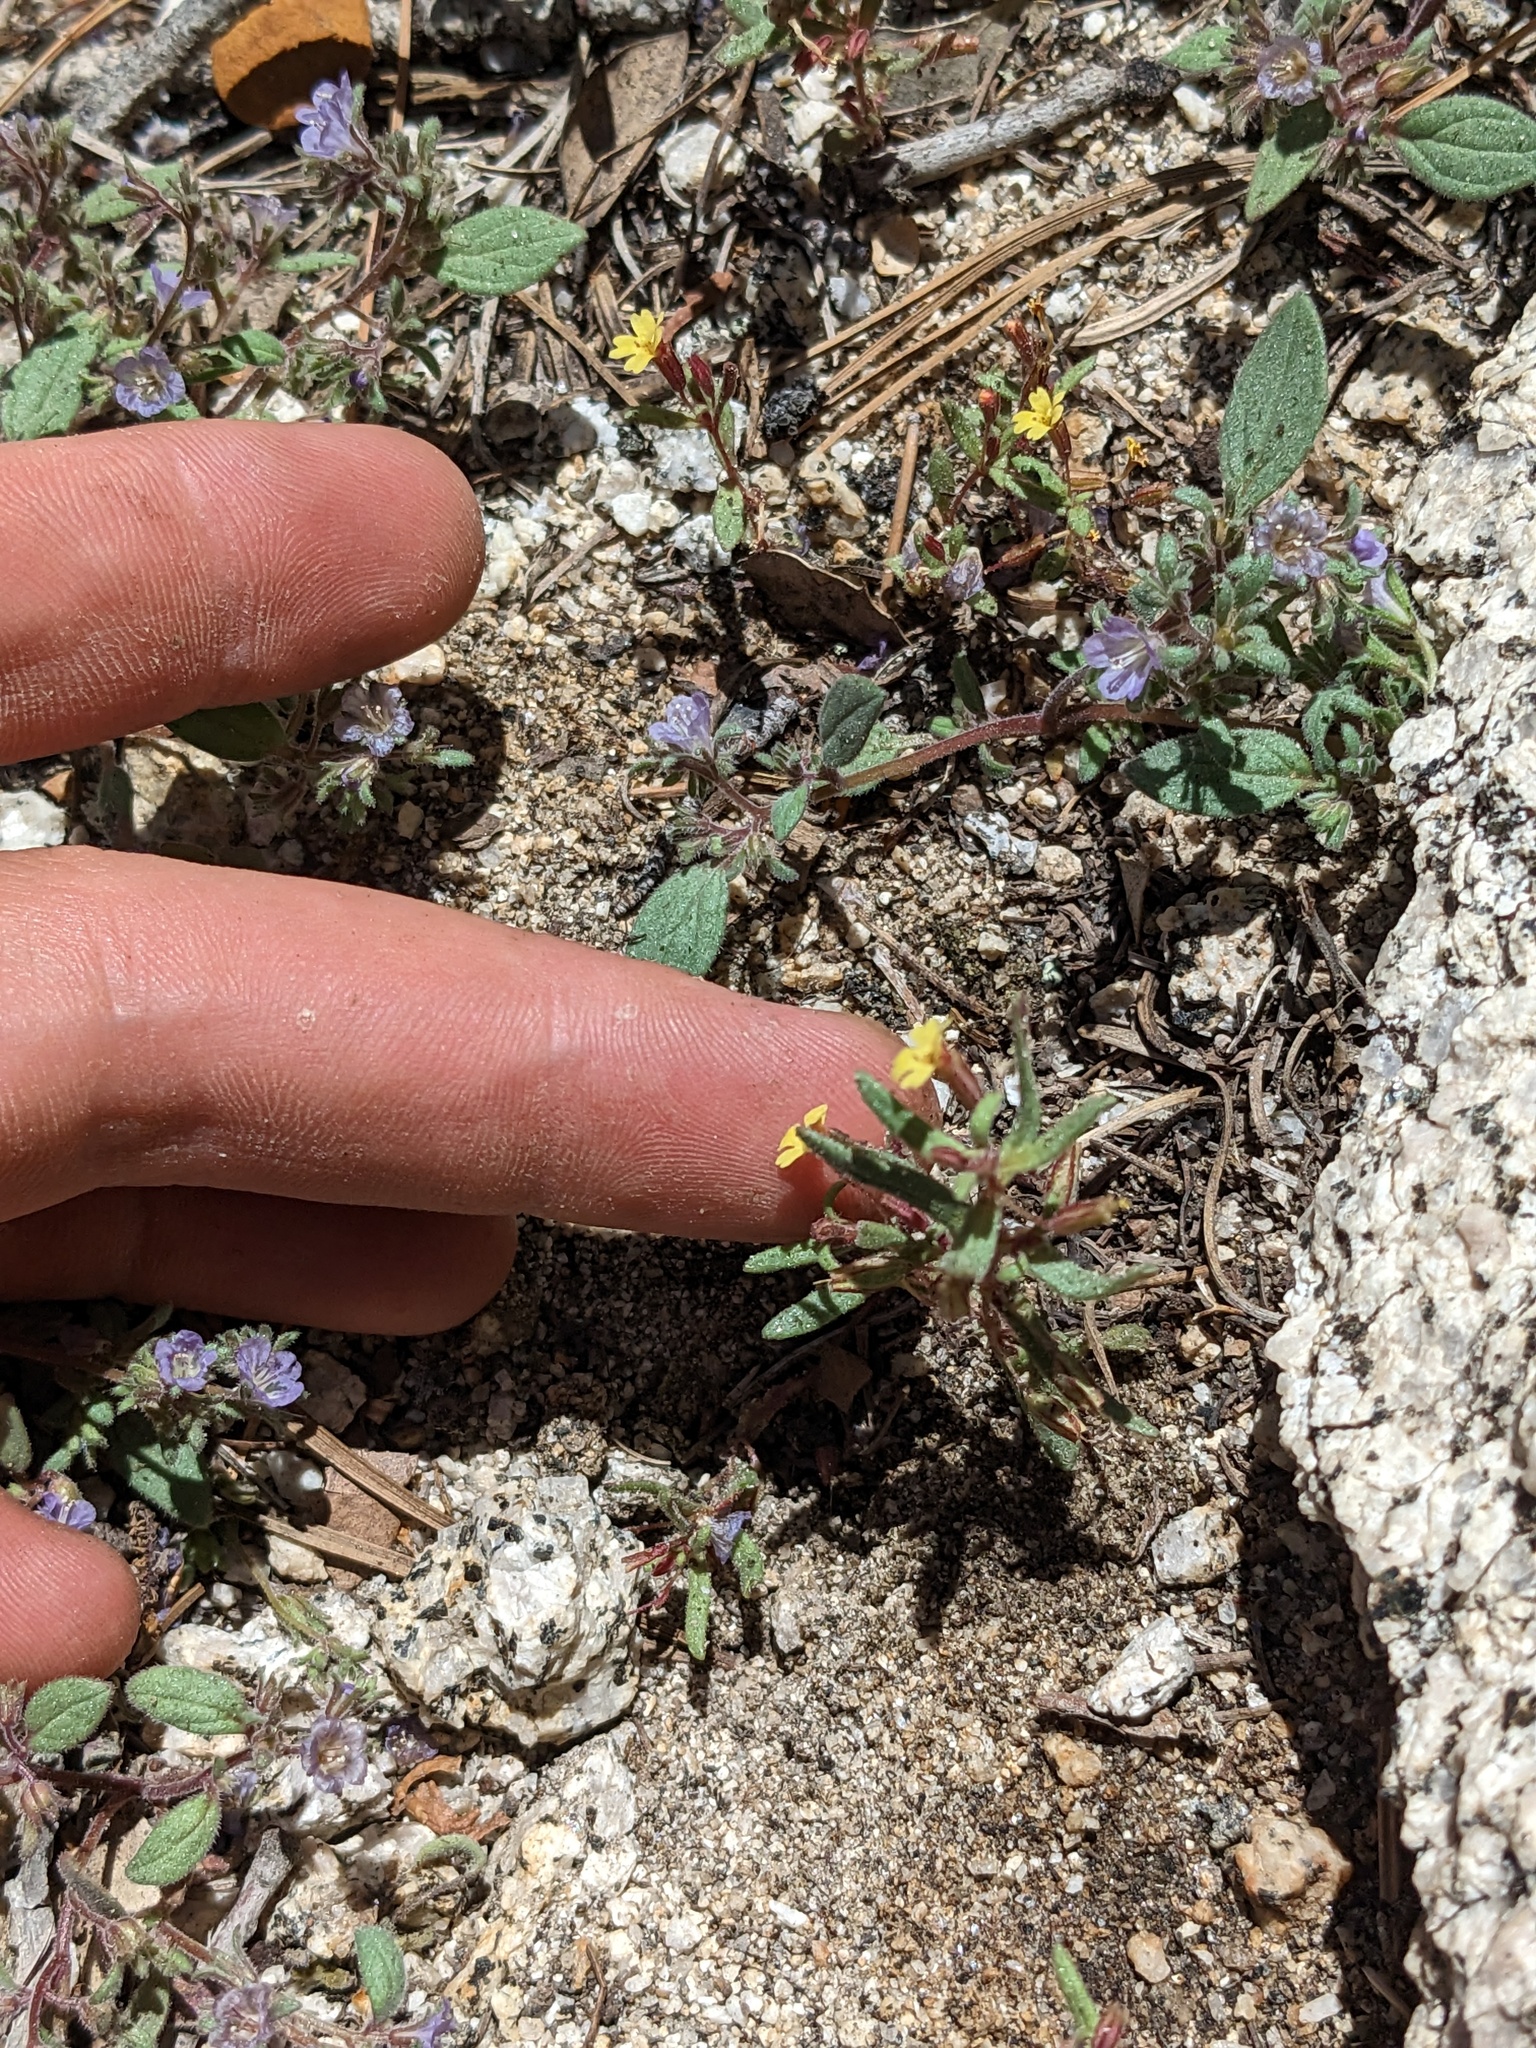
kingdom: Plantae
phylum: Tracheophyta
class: Magnoliopsida
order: Lamiales
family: Phrymaceae
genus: Erythranthe
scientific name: Erythranthe rubella
